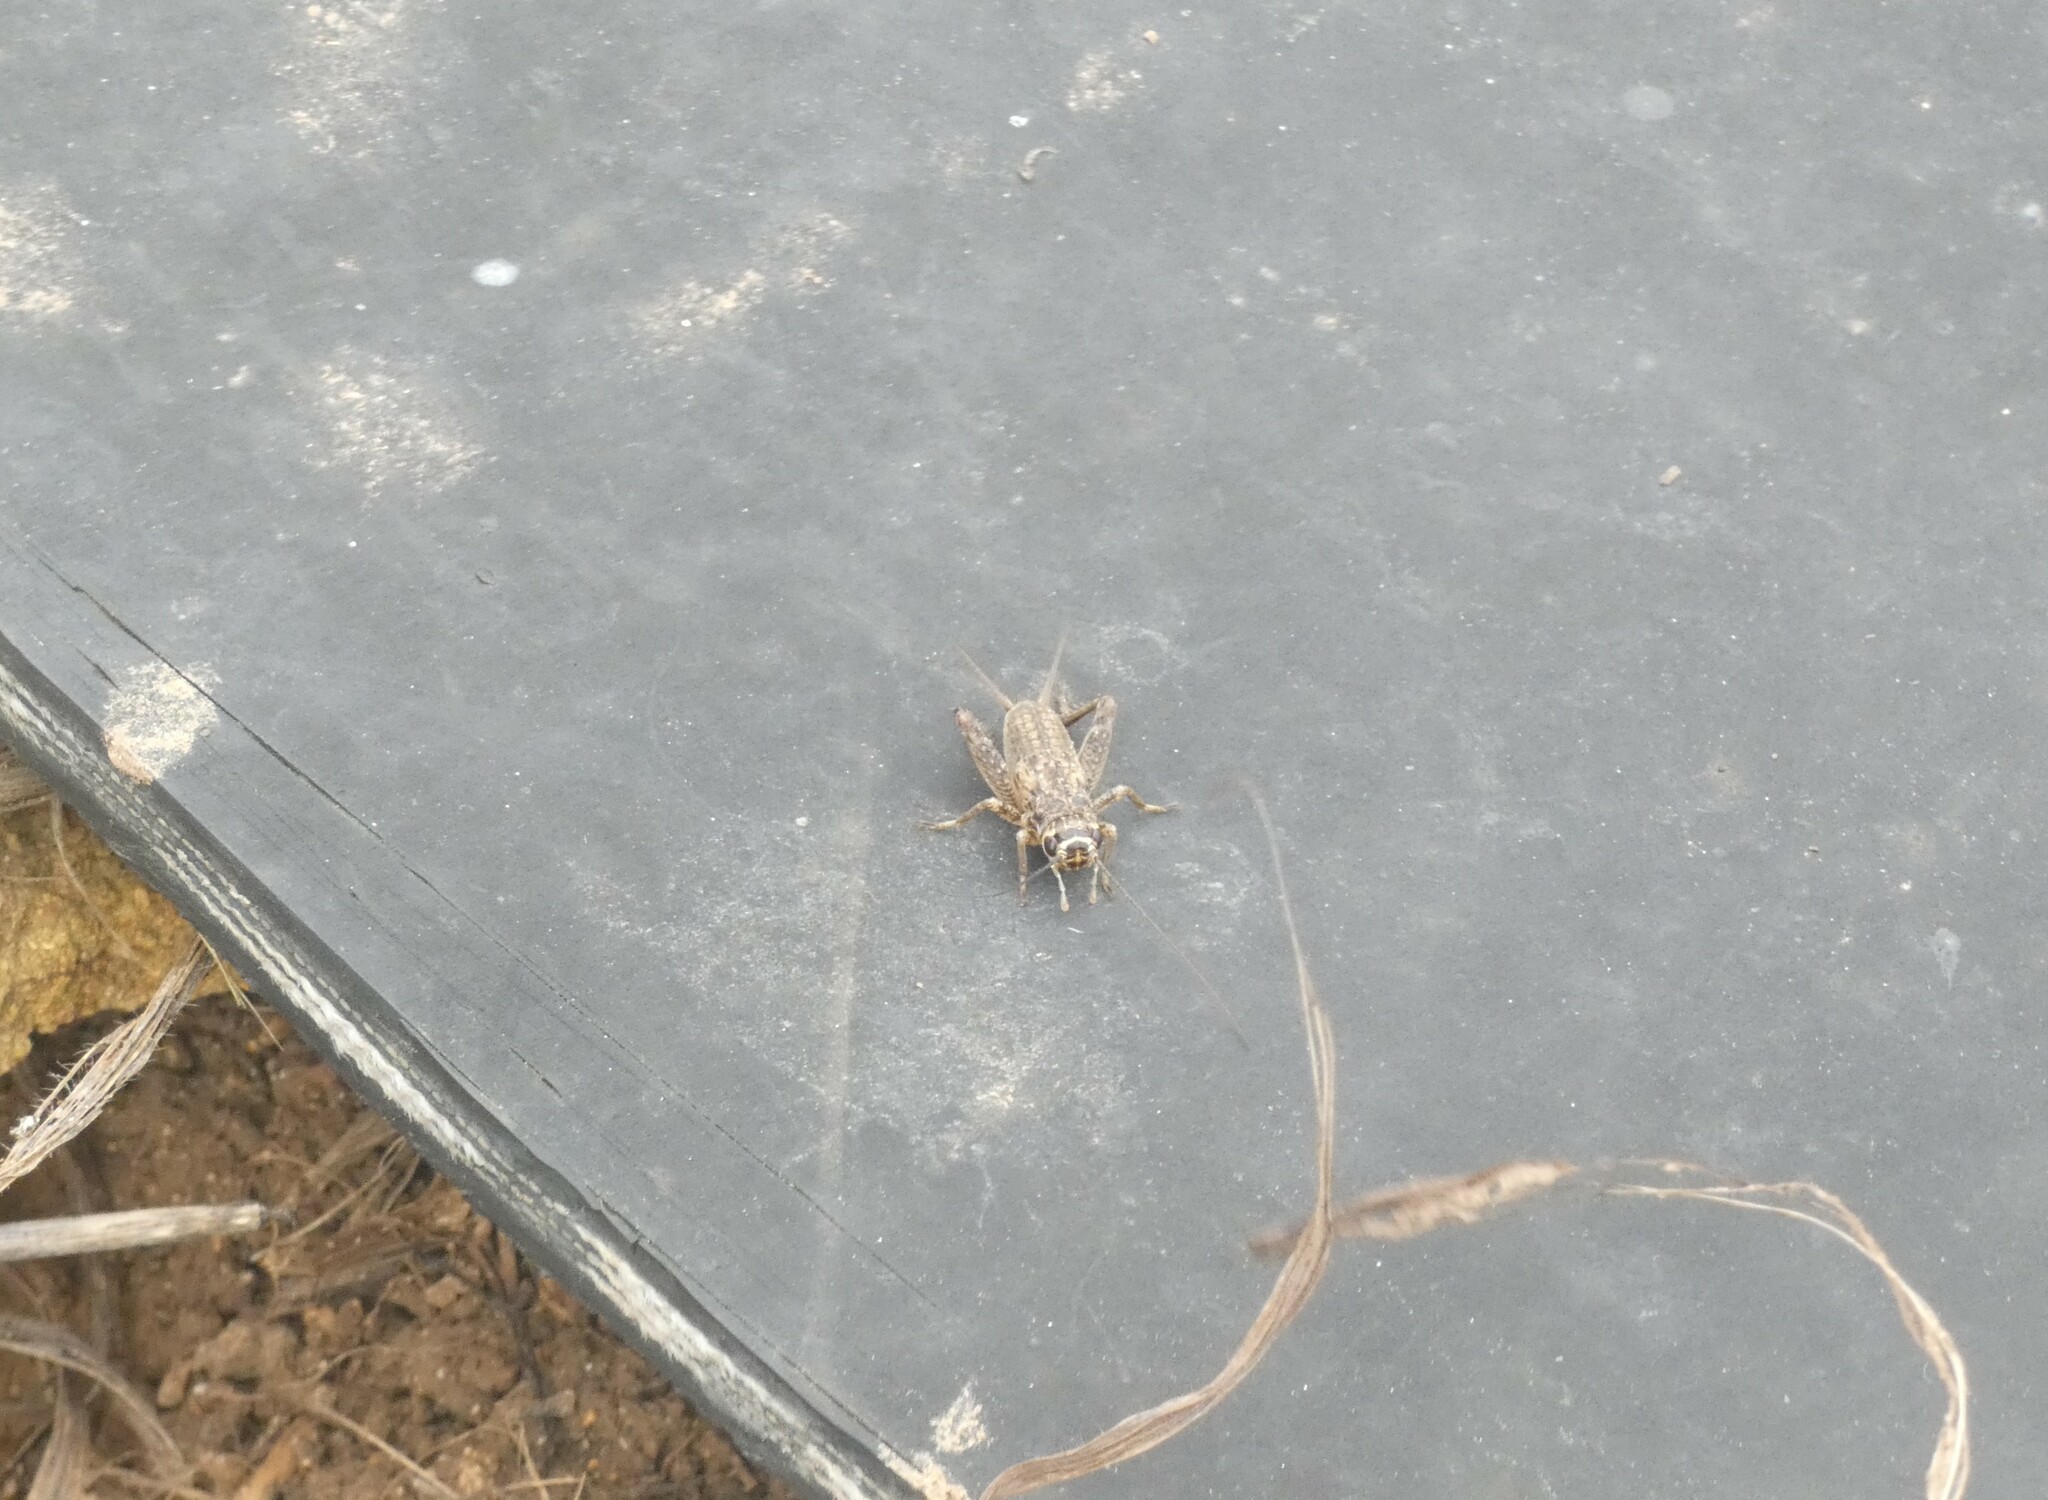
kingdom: Animalia
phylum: Arthropoda
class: Insecta
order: Orthoptera
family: Gryllidae
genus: Eumodicogryllus
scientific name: Eumodicogryllus bordigalensis
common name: Bordeaux cricket
